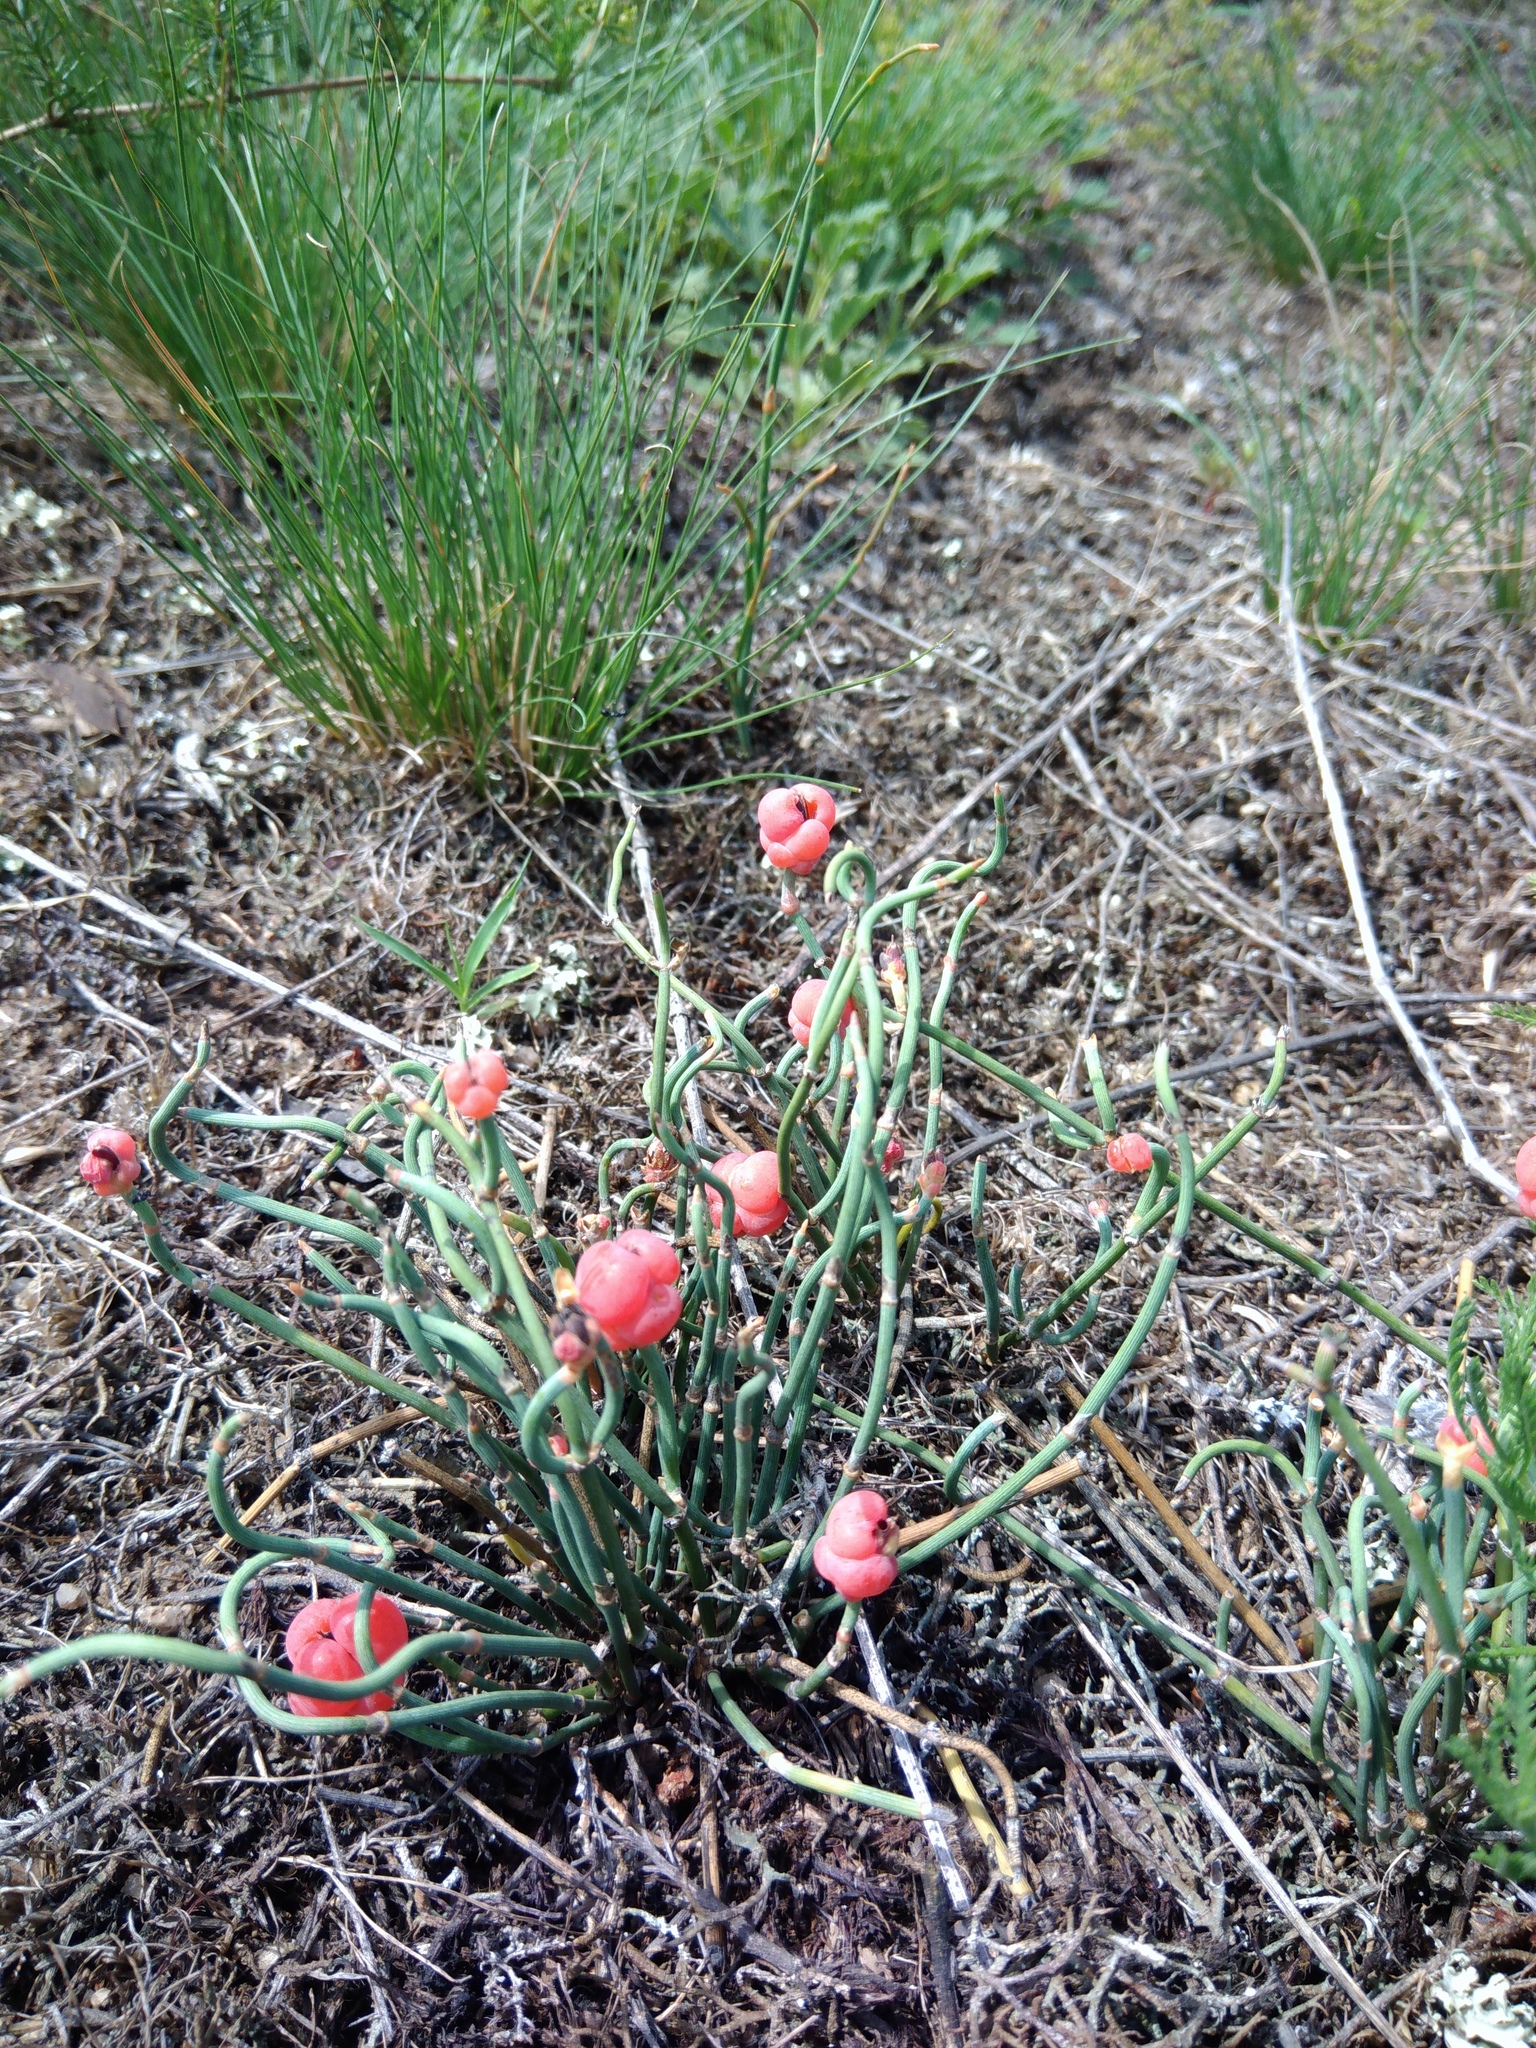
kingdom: Plantae
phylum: Tracheophyta
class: Gnetopsida
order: Ephedrales
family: Ephedraceae
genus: Ephedra
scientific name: Ephedra distachya
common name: Sea grape
